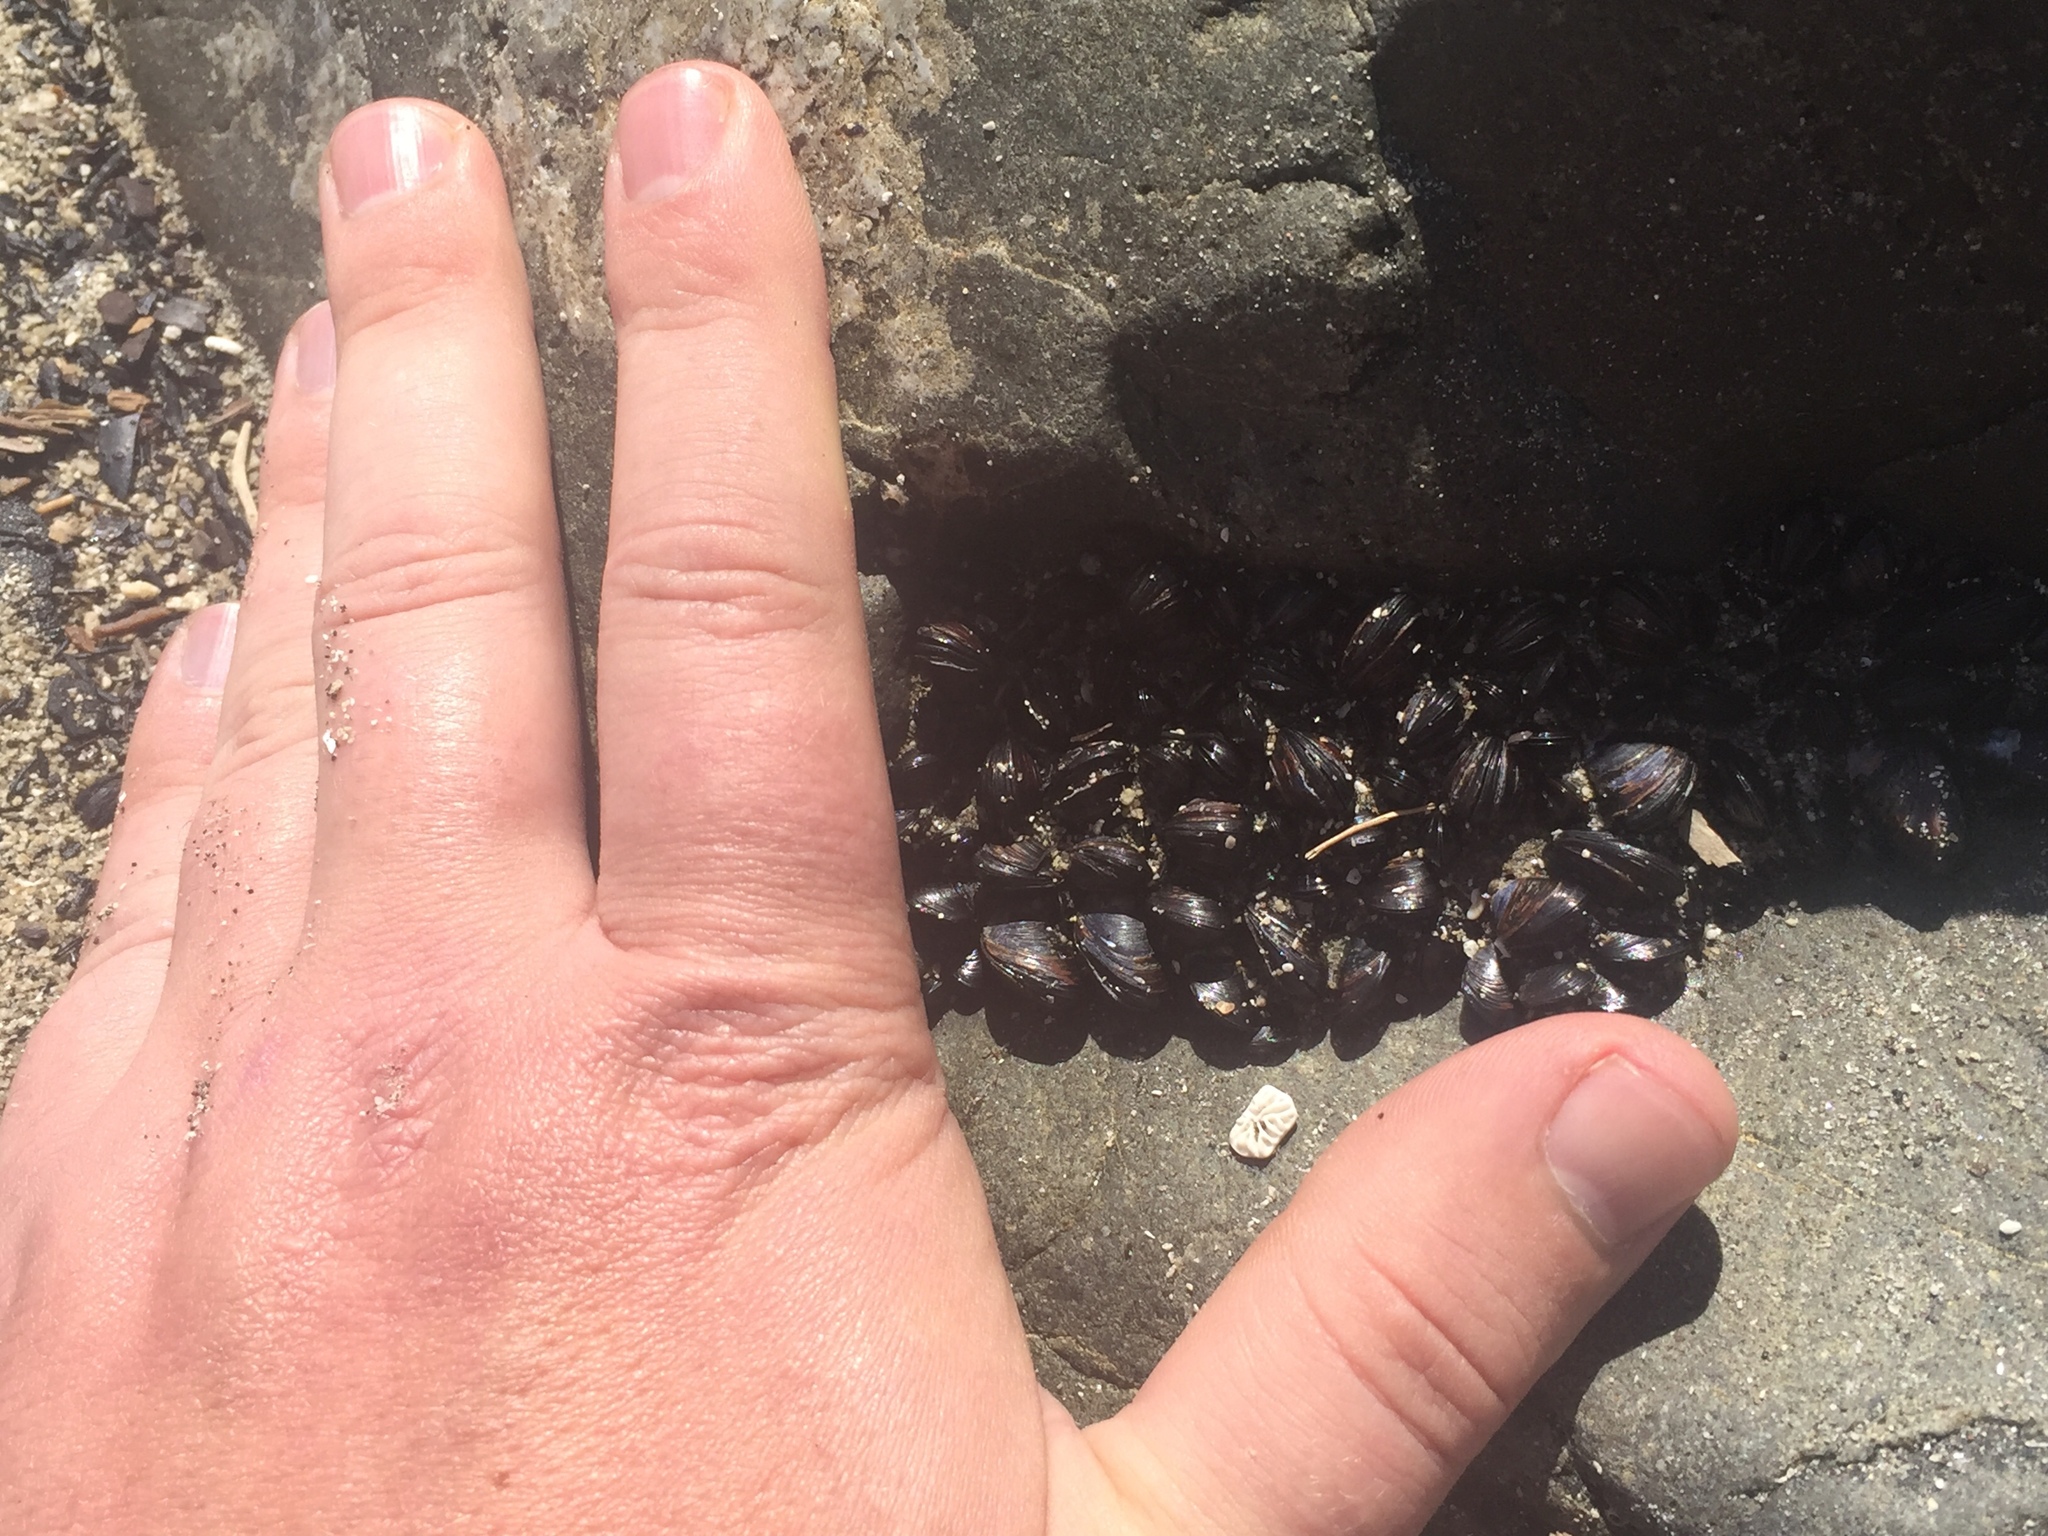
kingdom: Animalia
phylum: Mollusca
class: Bivalvia
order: Mytilida
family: Mytilidae
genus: Xenostrobus
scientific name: Xenostrobus neozelanicus
